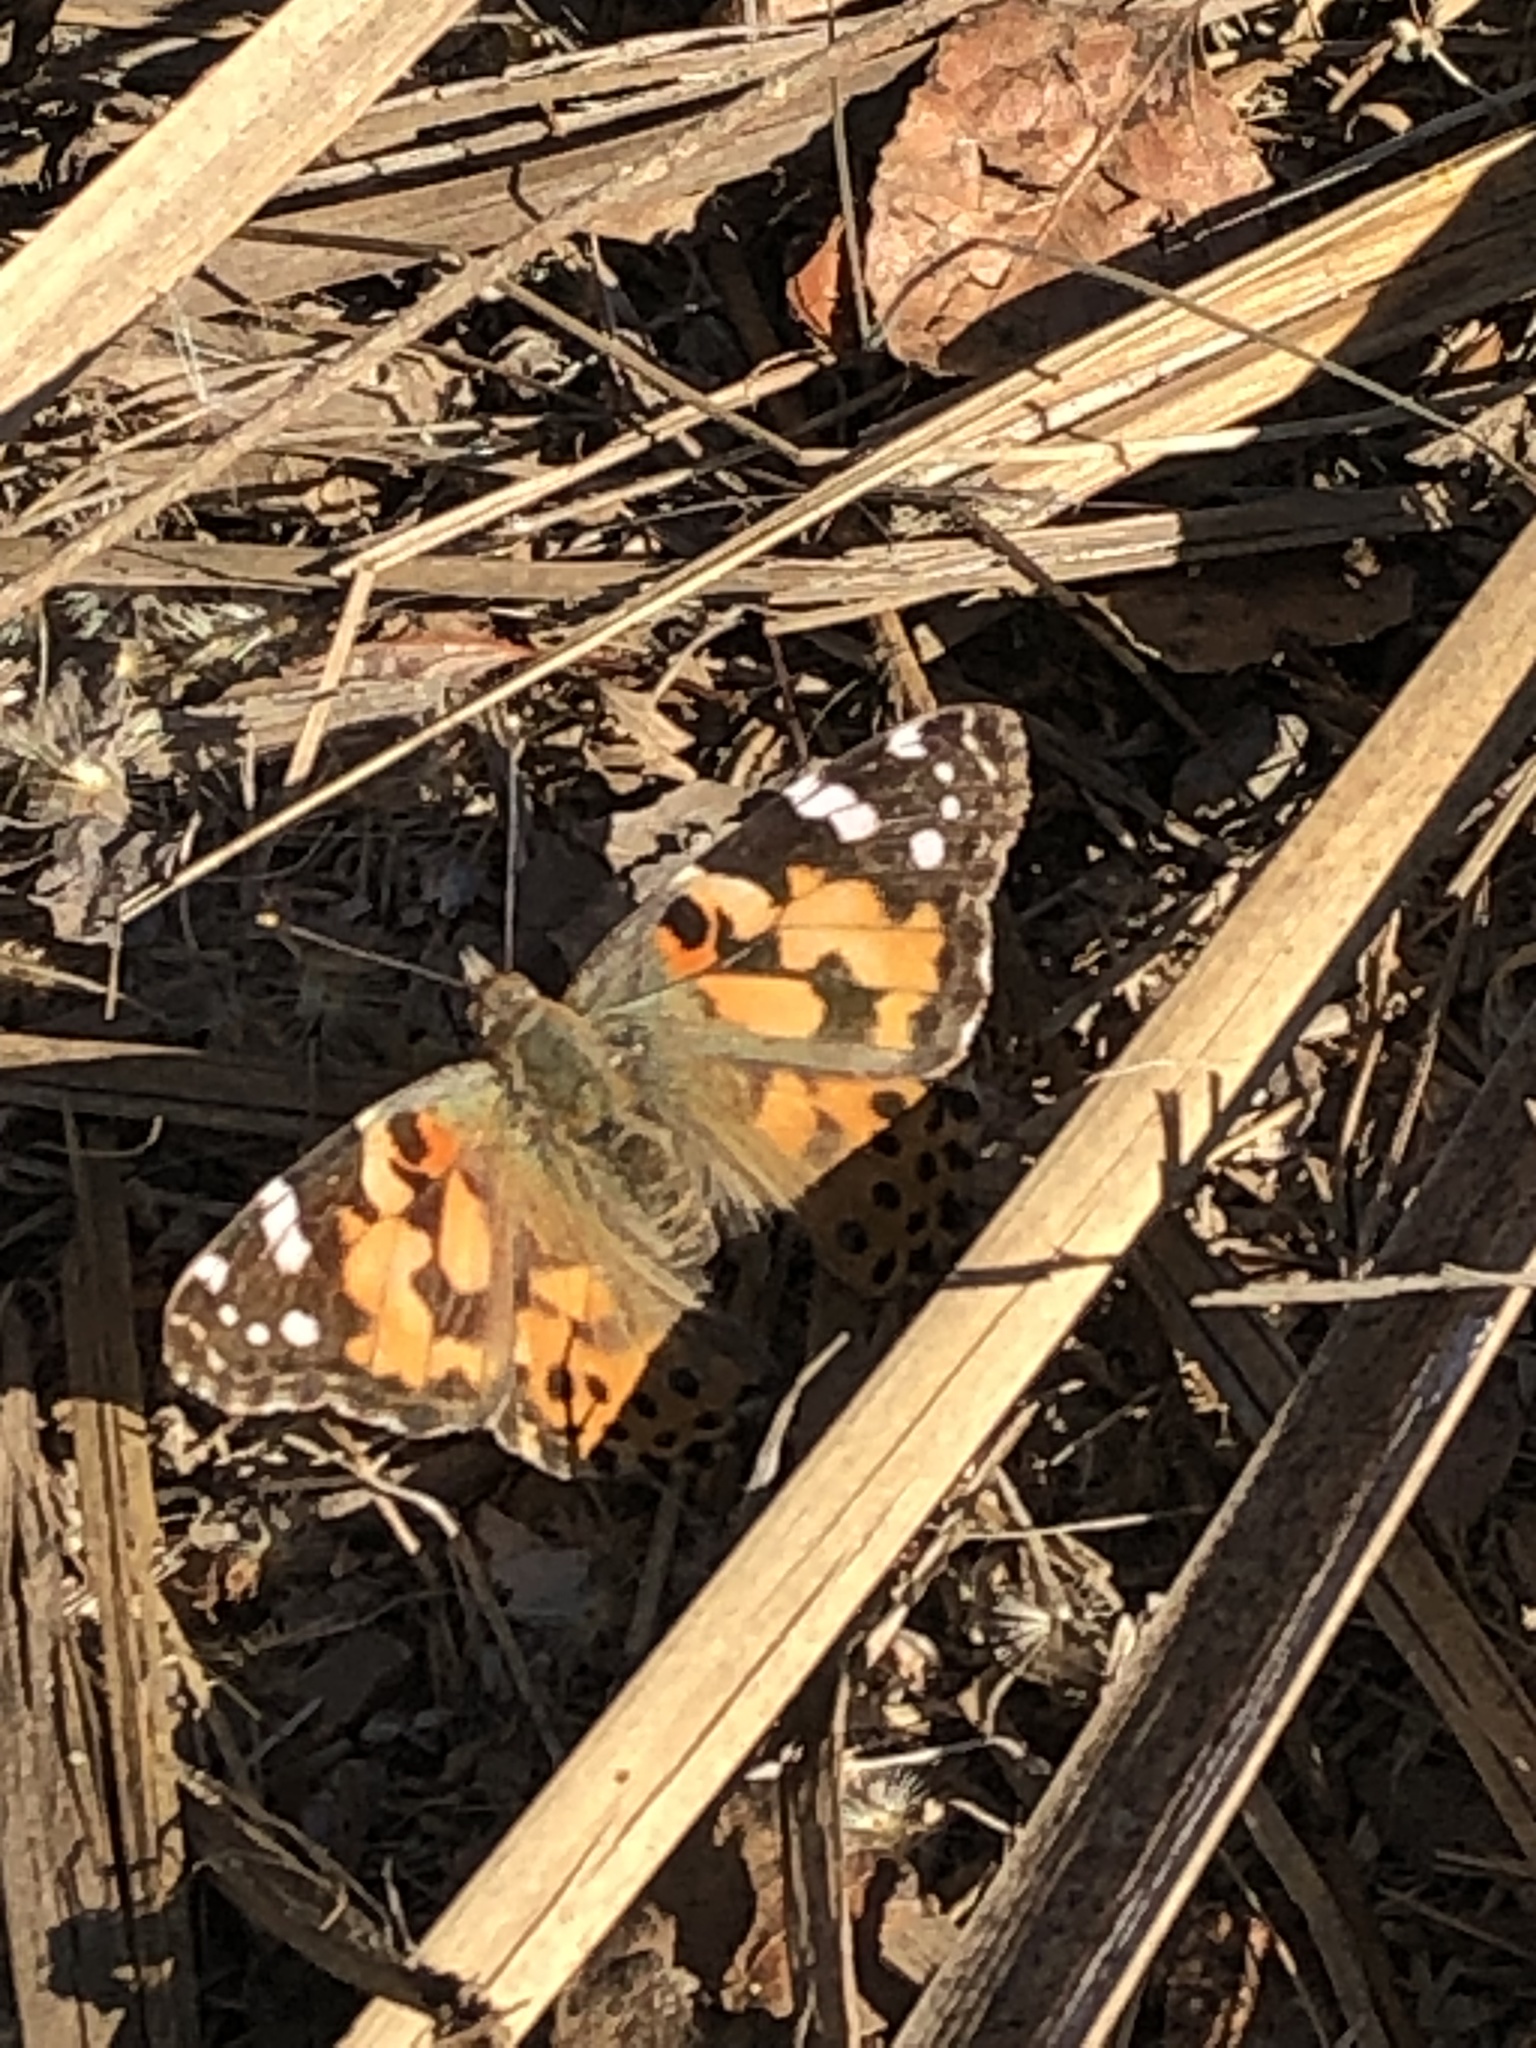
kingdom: Animalia
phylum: Arthropoda
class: Insecta
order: Lepidoptera
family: Nymphalidae
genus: Vanessa
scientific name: Vanessa cardui
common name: Painted lady
